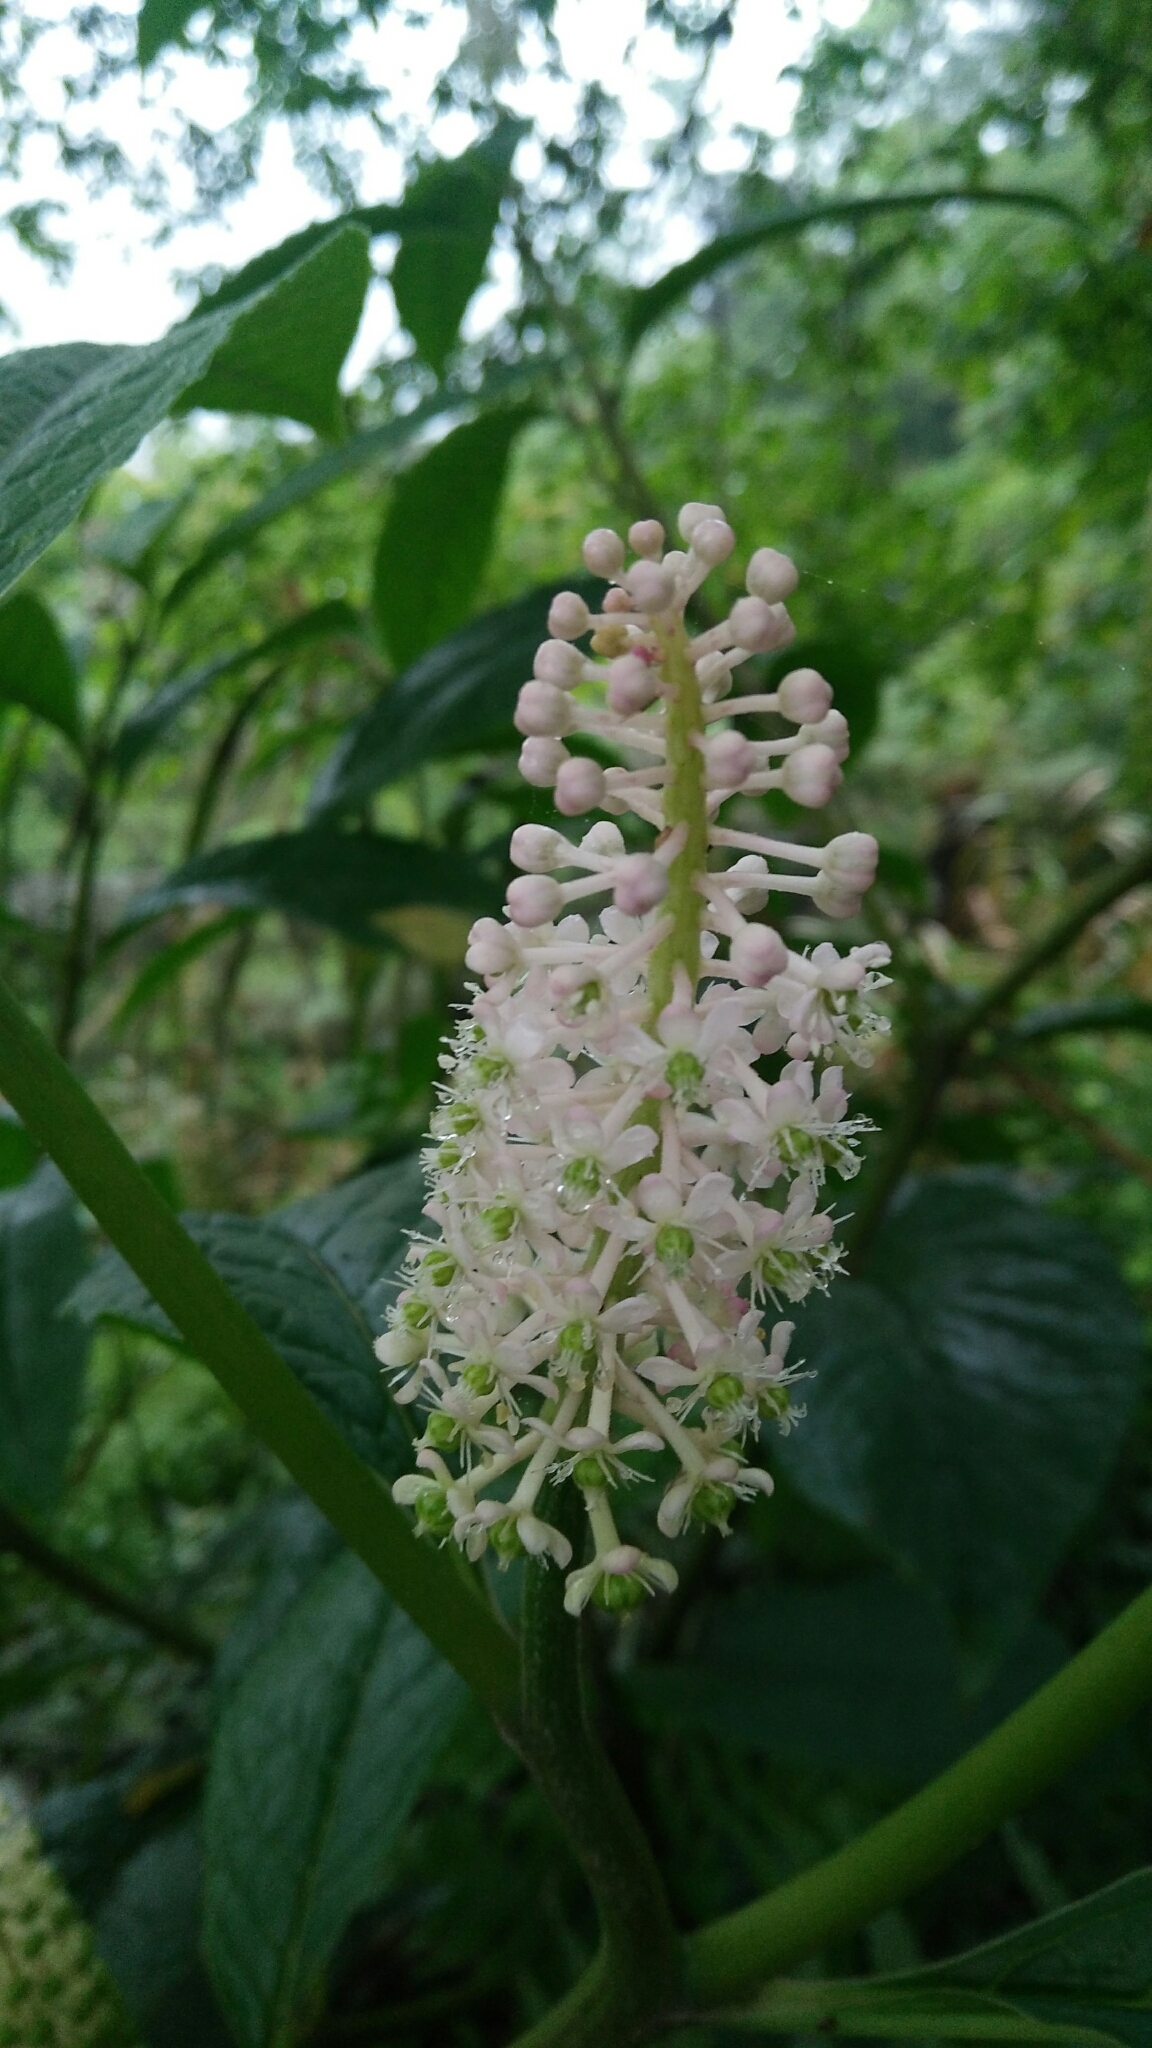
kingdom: Plantae
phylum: Tracheophyta
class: Magnoliopsida
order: Caryophyllales
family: Phytolaccaceae
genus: Phytolacca
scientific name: Phytolacca japonica
